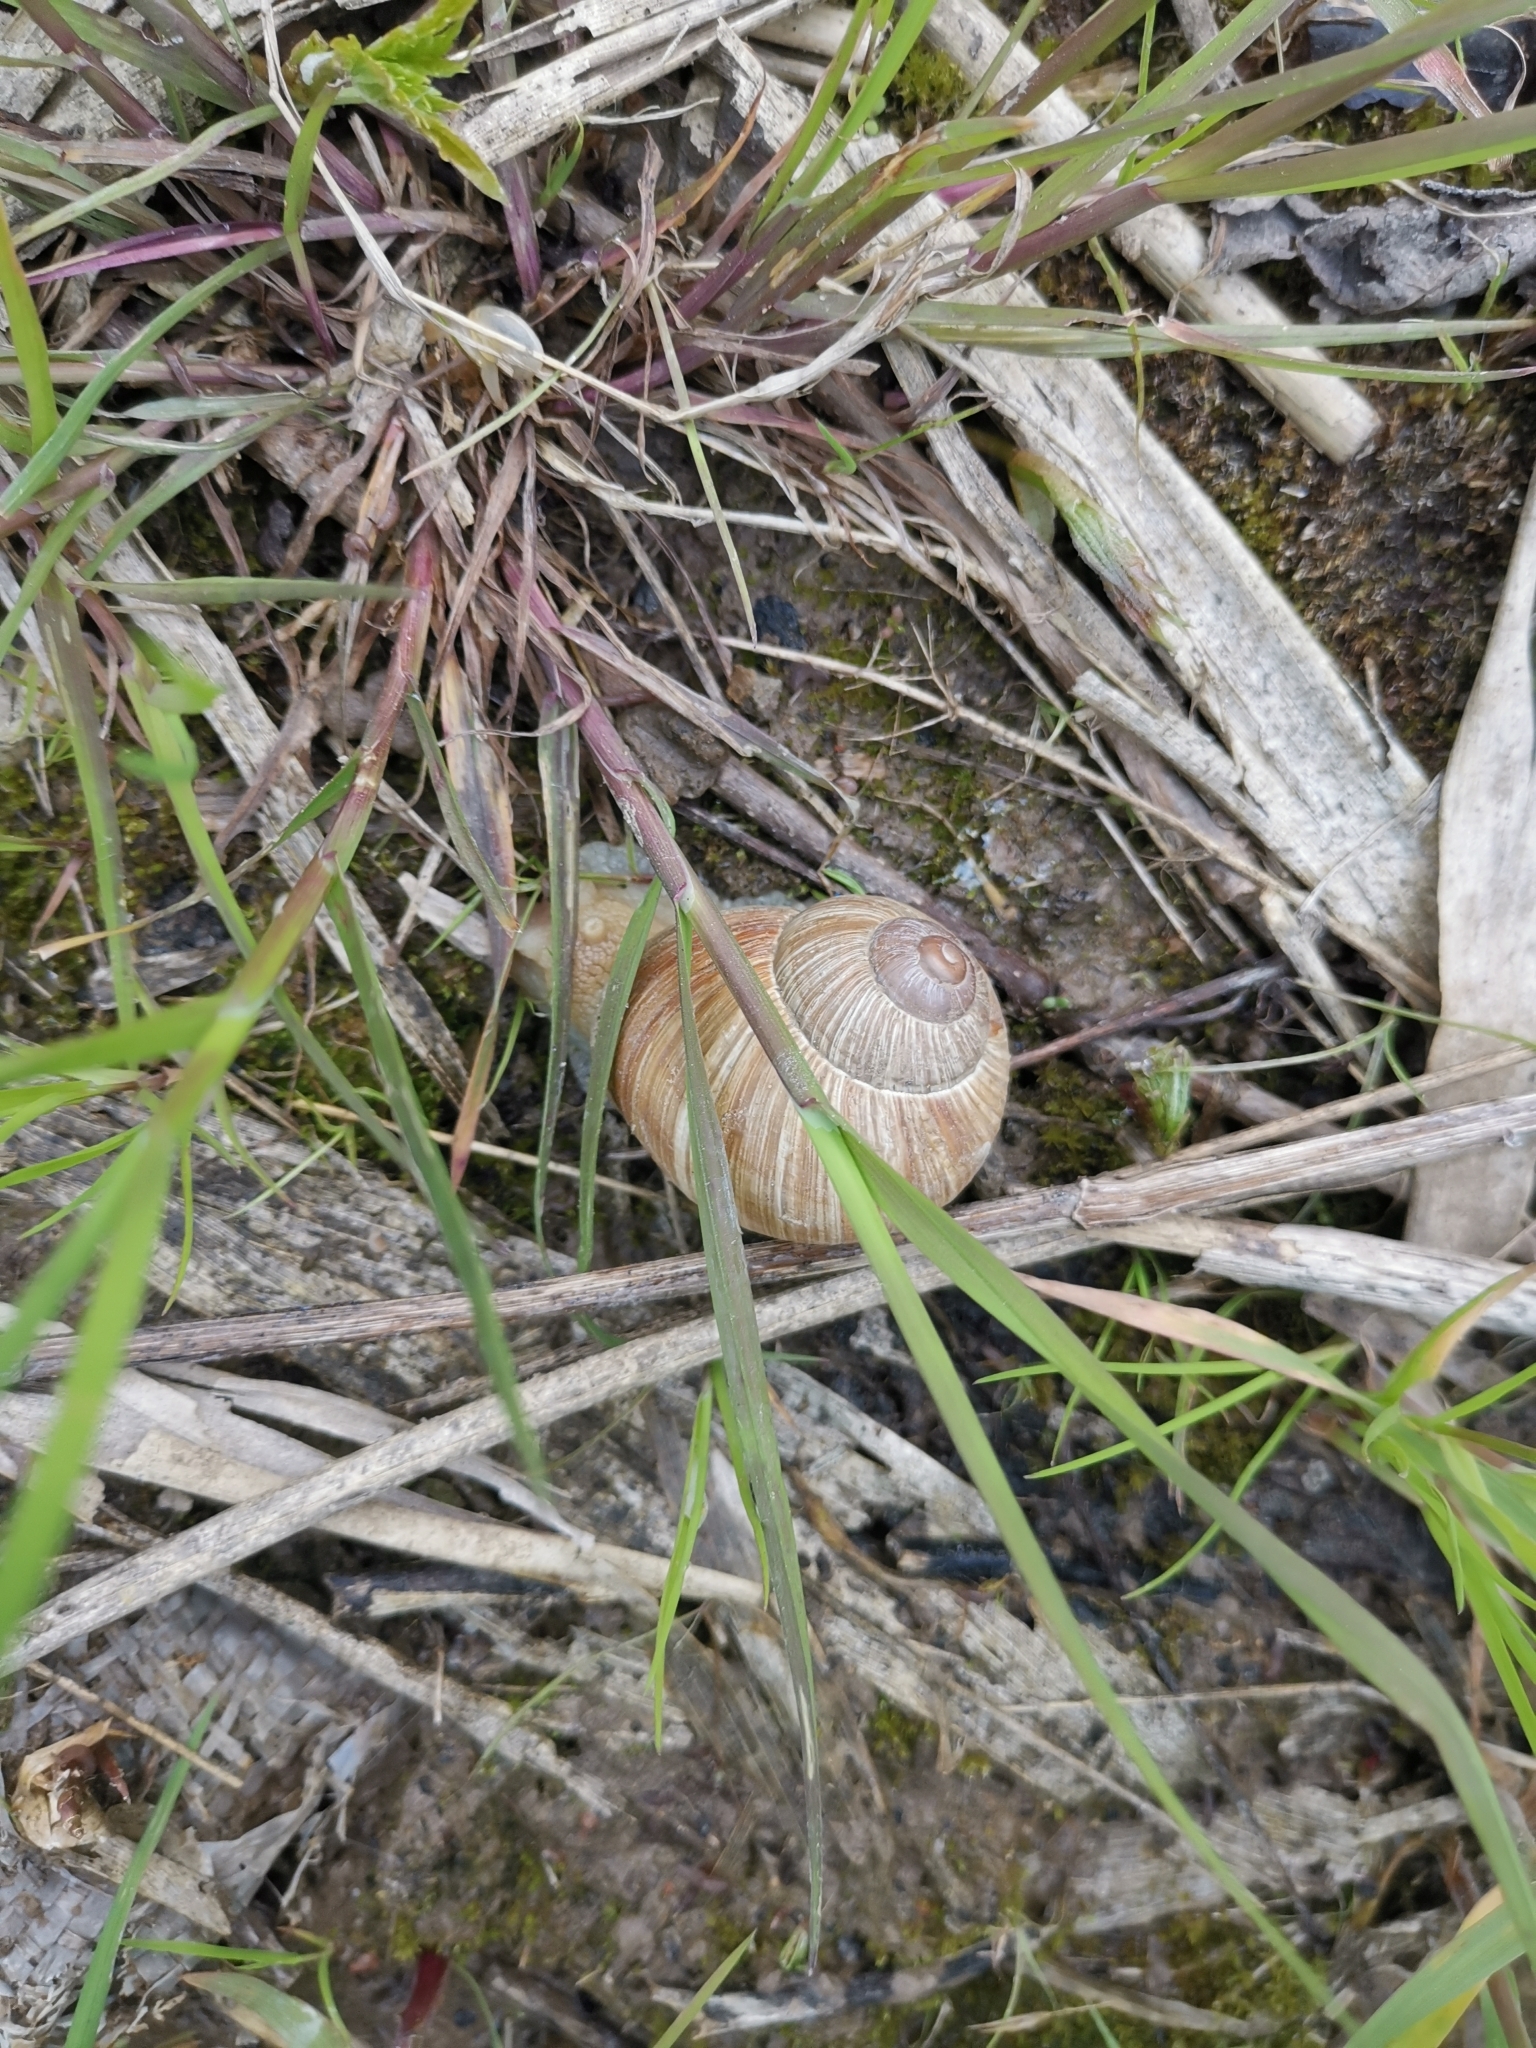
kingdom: Animalia
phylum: Mollusca
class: Gastropoda
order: Stylommatophora
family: Helicidae
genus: Helix
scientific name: Helix pomatia
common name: Roman snail
